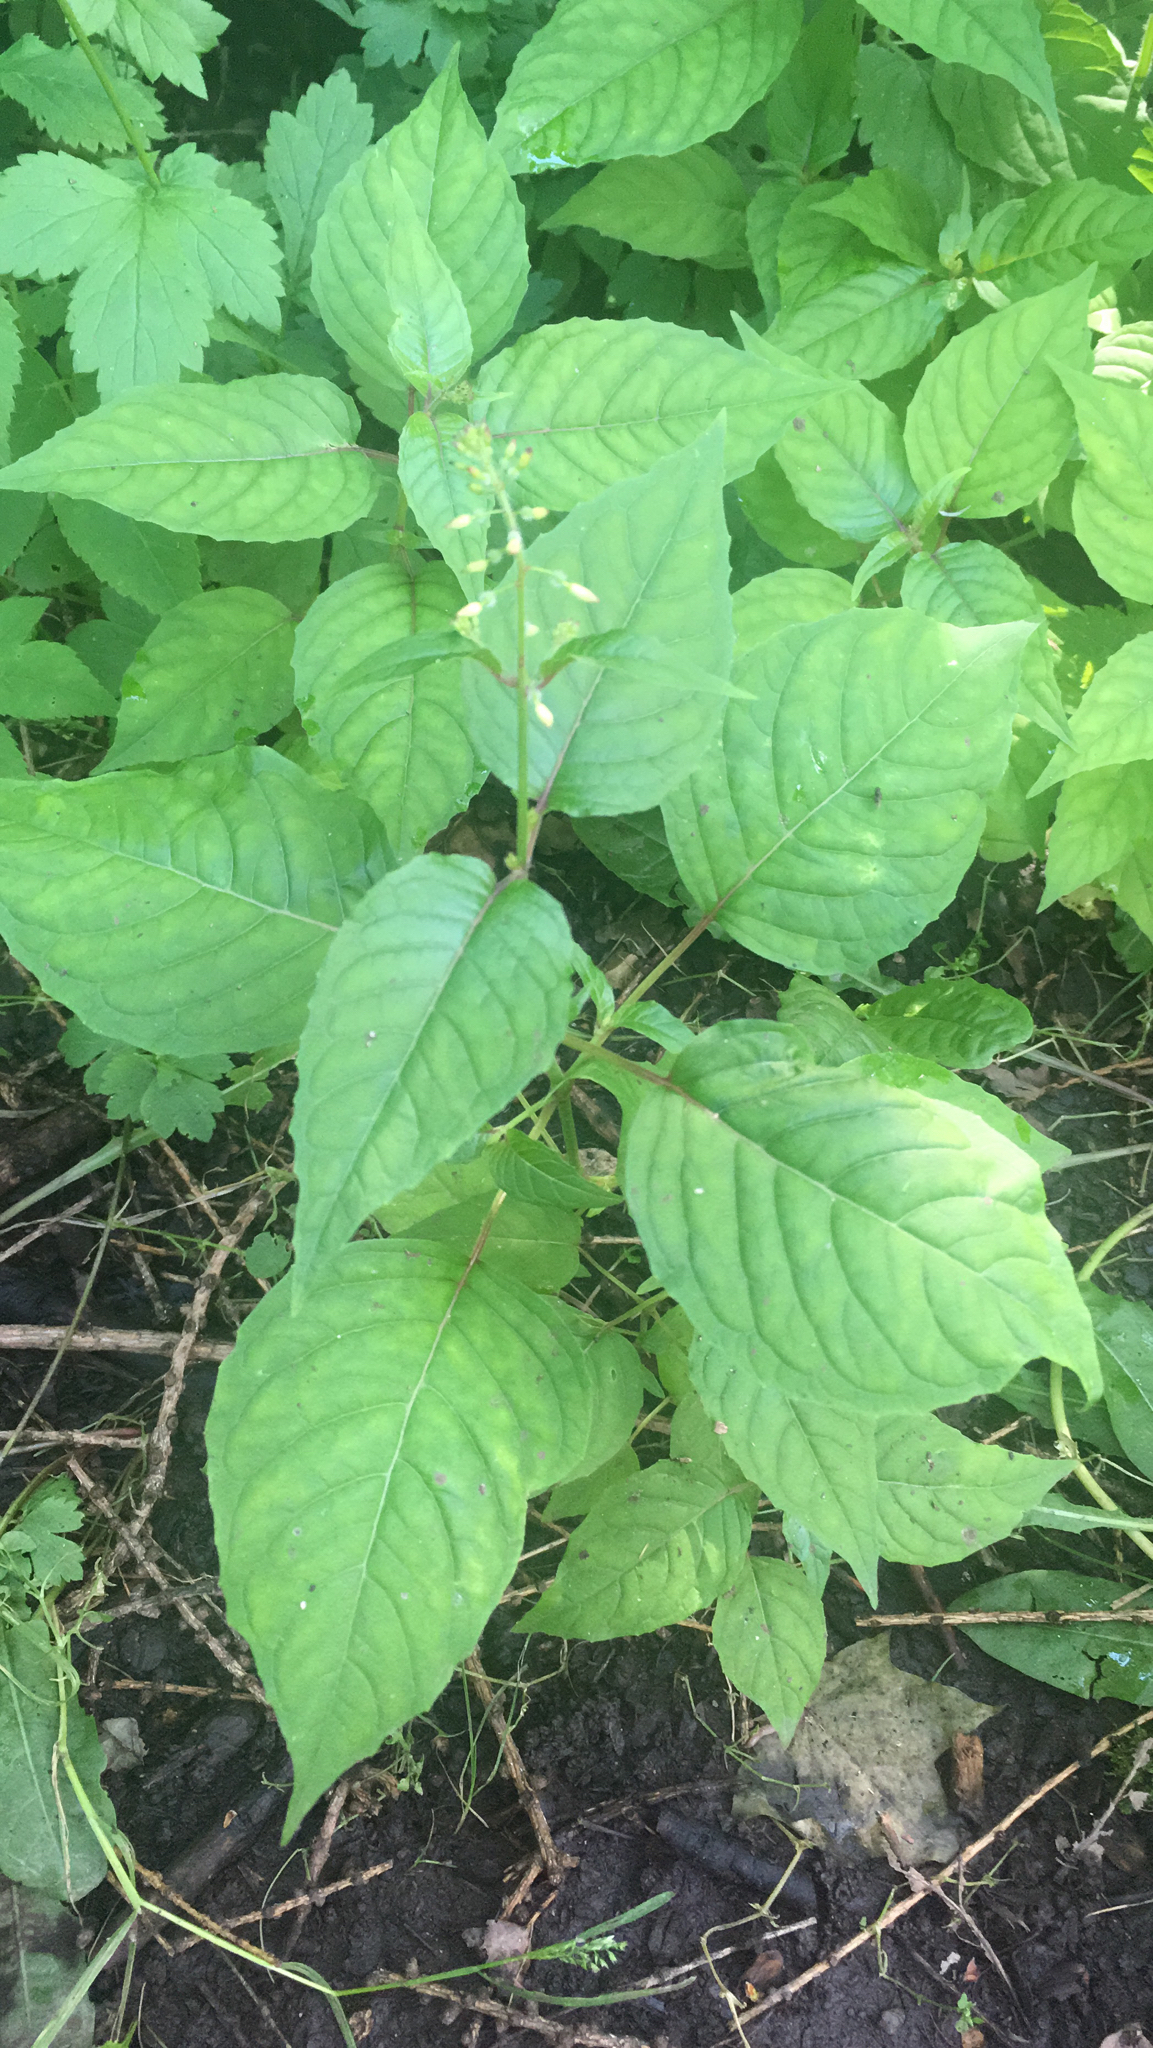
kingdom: Plantae
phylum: Tracheophyta
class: Magnoliopsida
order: Myrtales
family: Onagraceae
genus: Circaea
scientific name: Circaea lutetiana
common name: Enchanter's-nightshade
